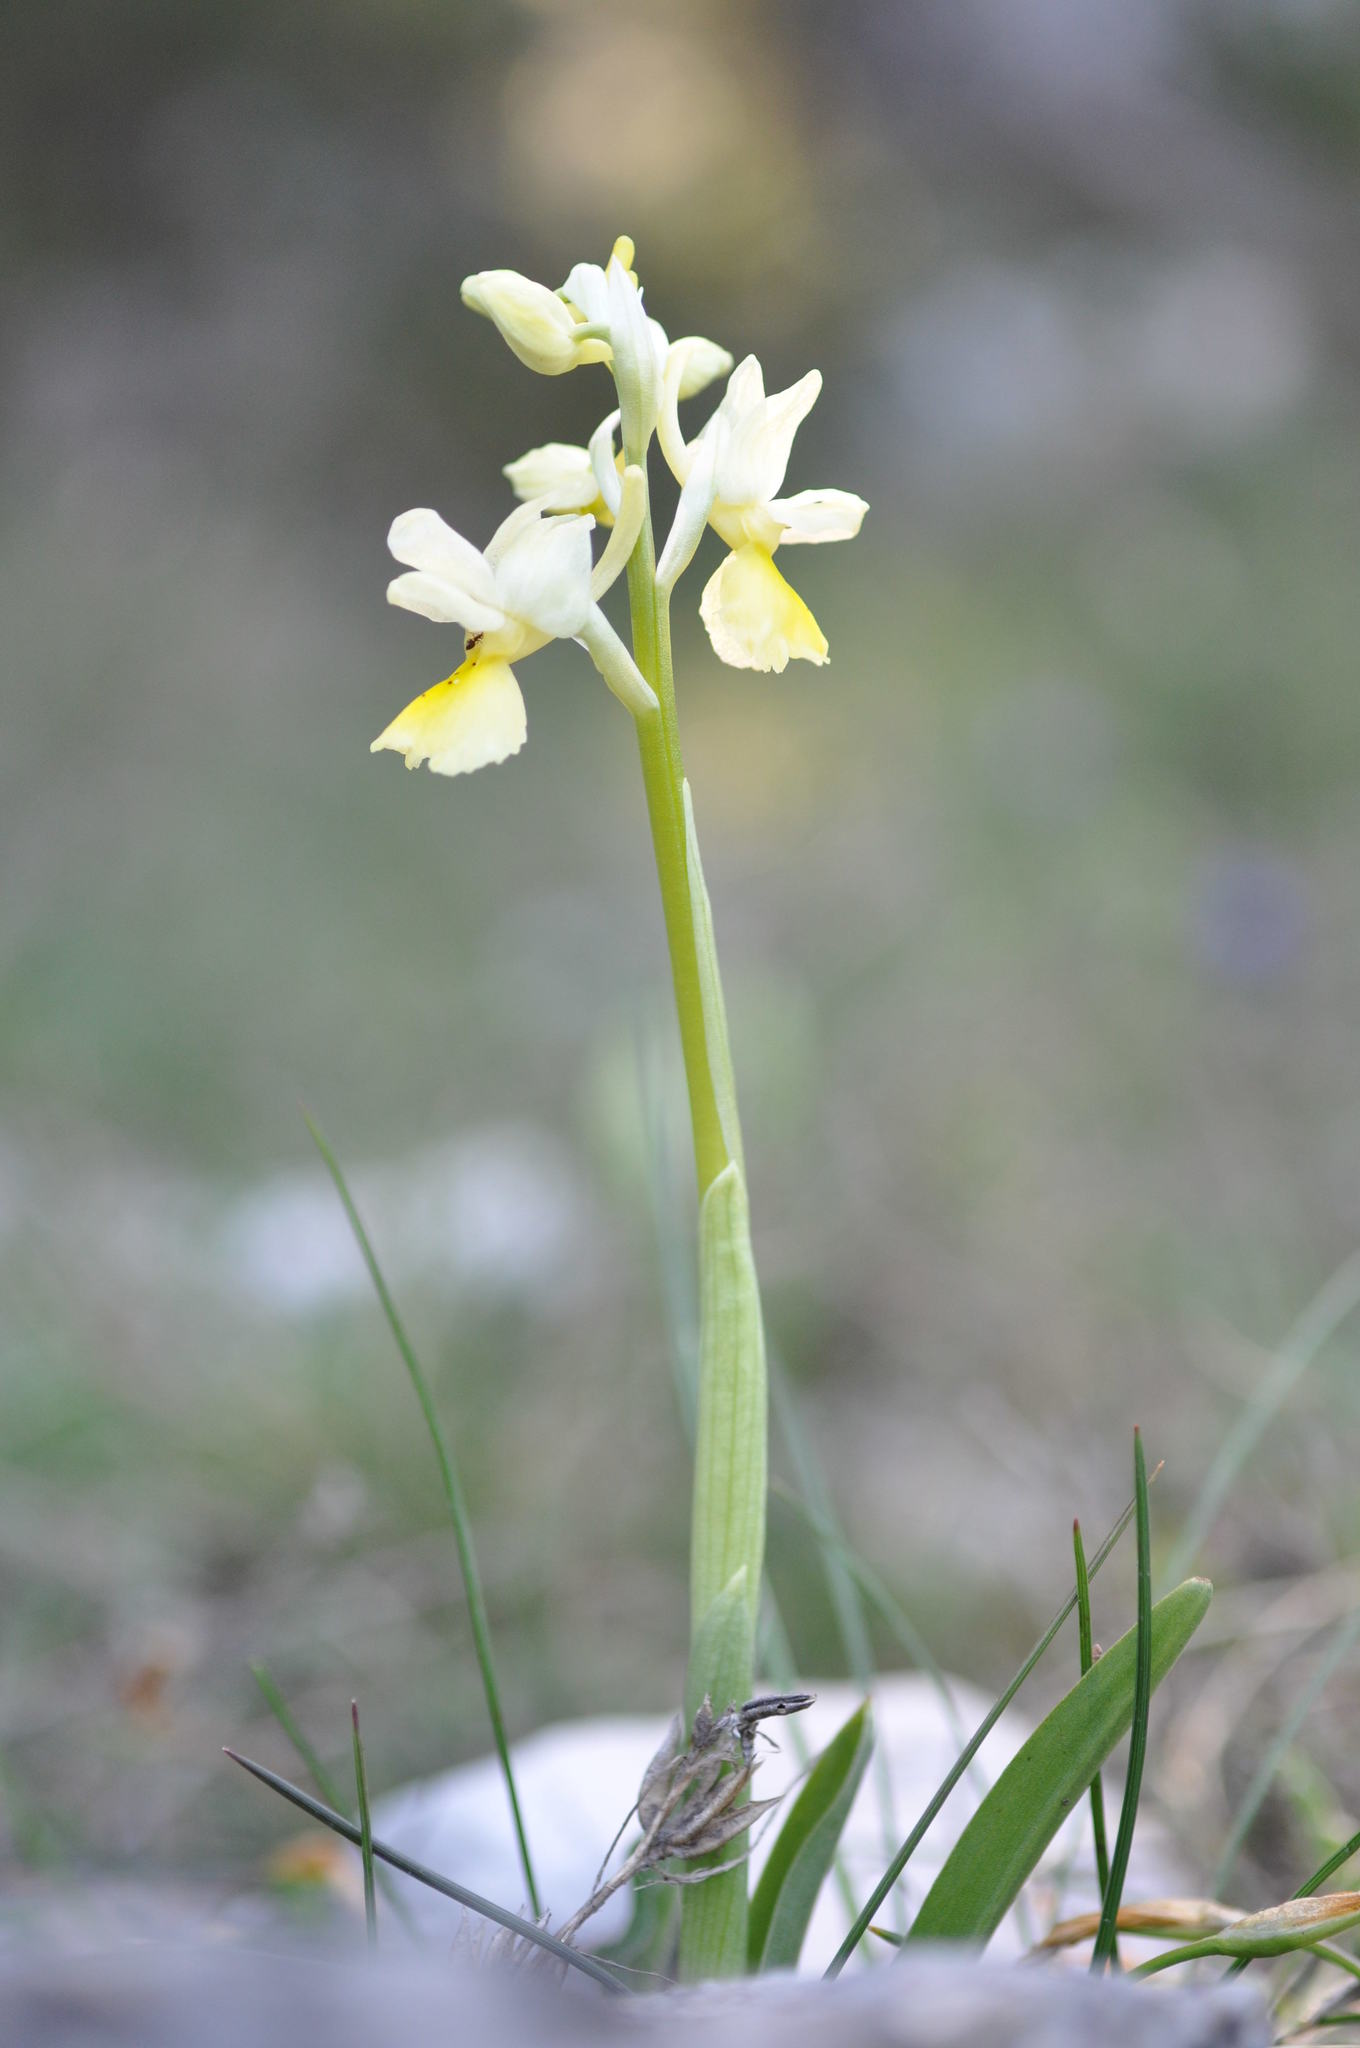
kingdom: Plantae
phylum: Tracheophyta
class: Liliopsida
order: Asparagales
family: Orchidaceae
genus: Orchis
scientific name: Orchis pauciflora
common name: Few-flowered orchid
